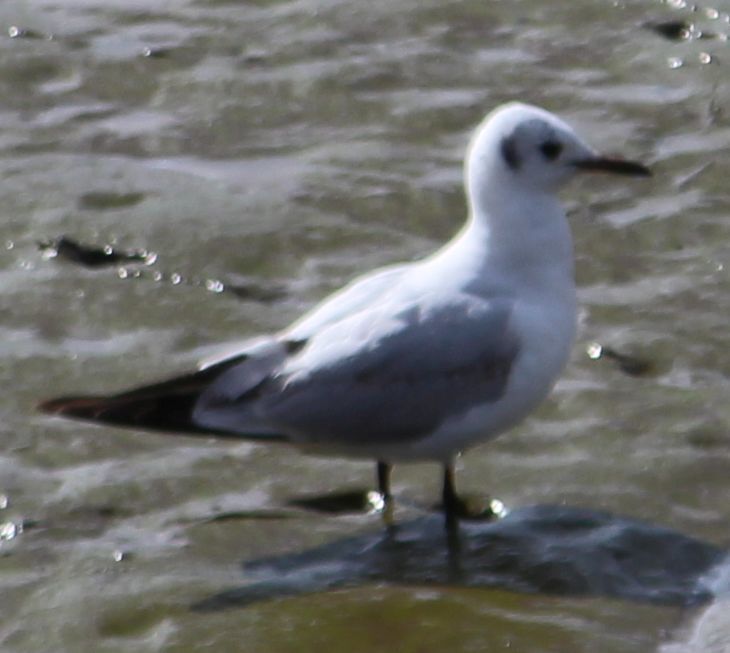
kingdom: Animalia
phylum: Chordata
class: Aves
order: Charadriiformes
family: Laridae
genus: Chroicocephalus
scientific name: Chroicocephalus ridibundus
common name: Black-headed gull
